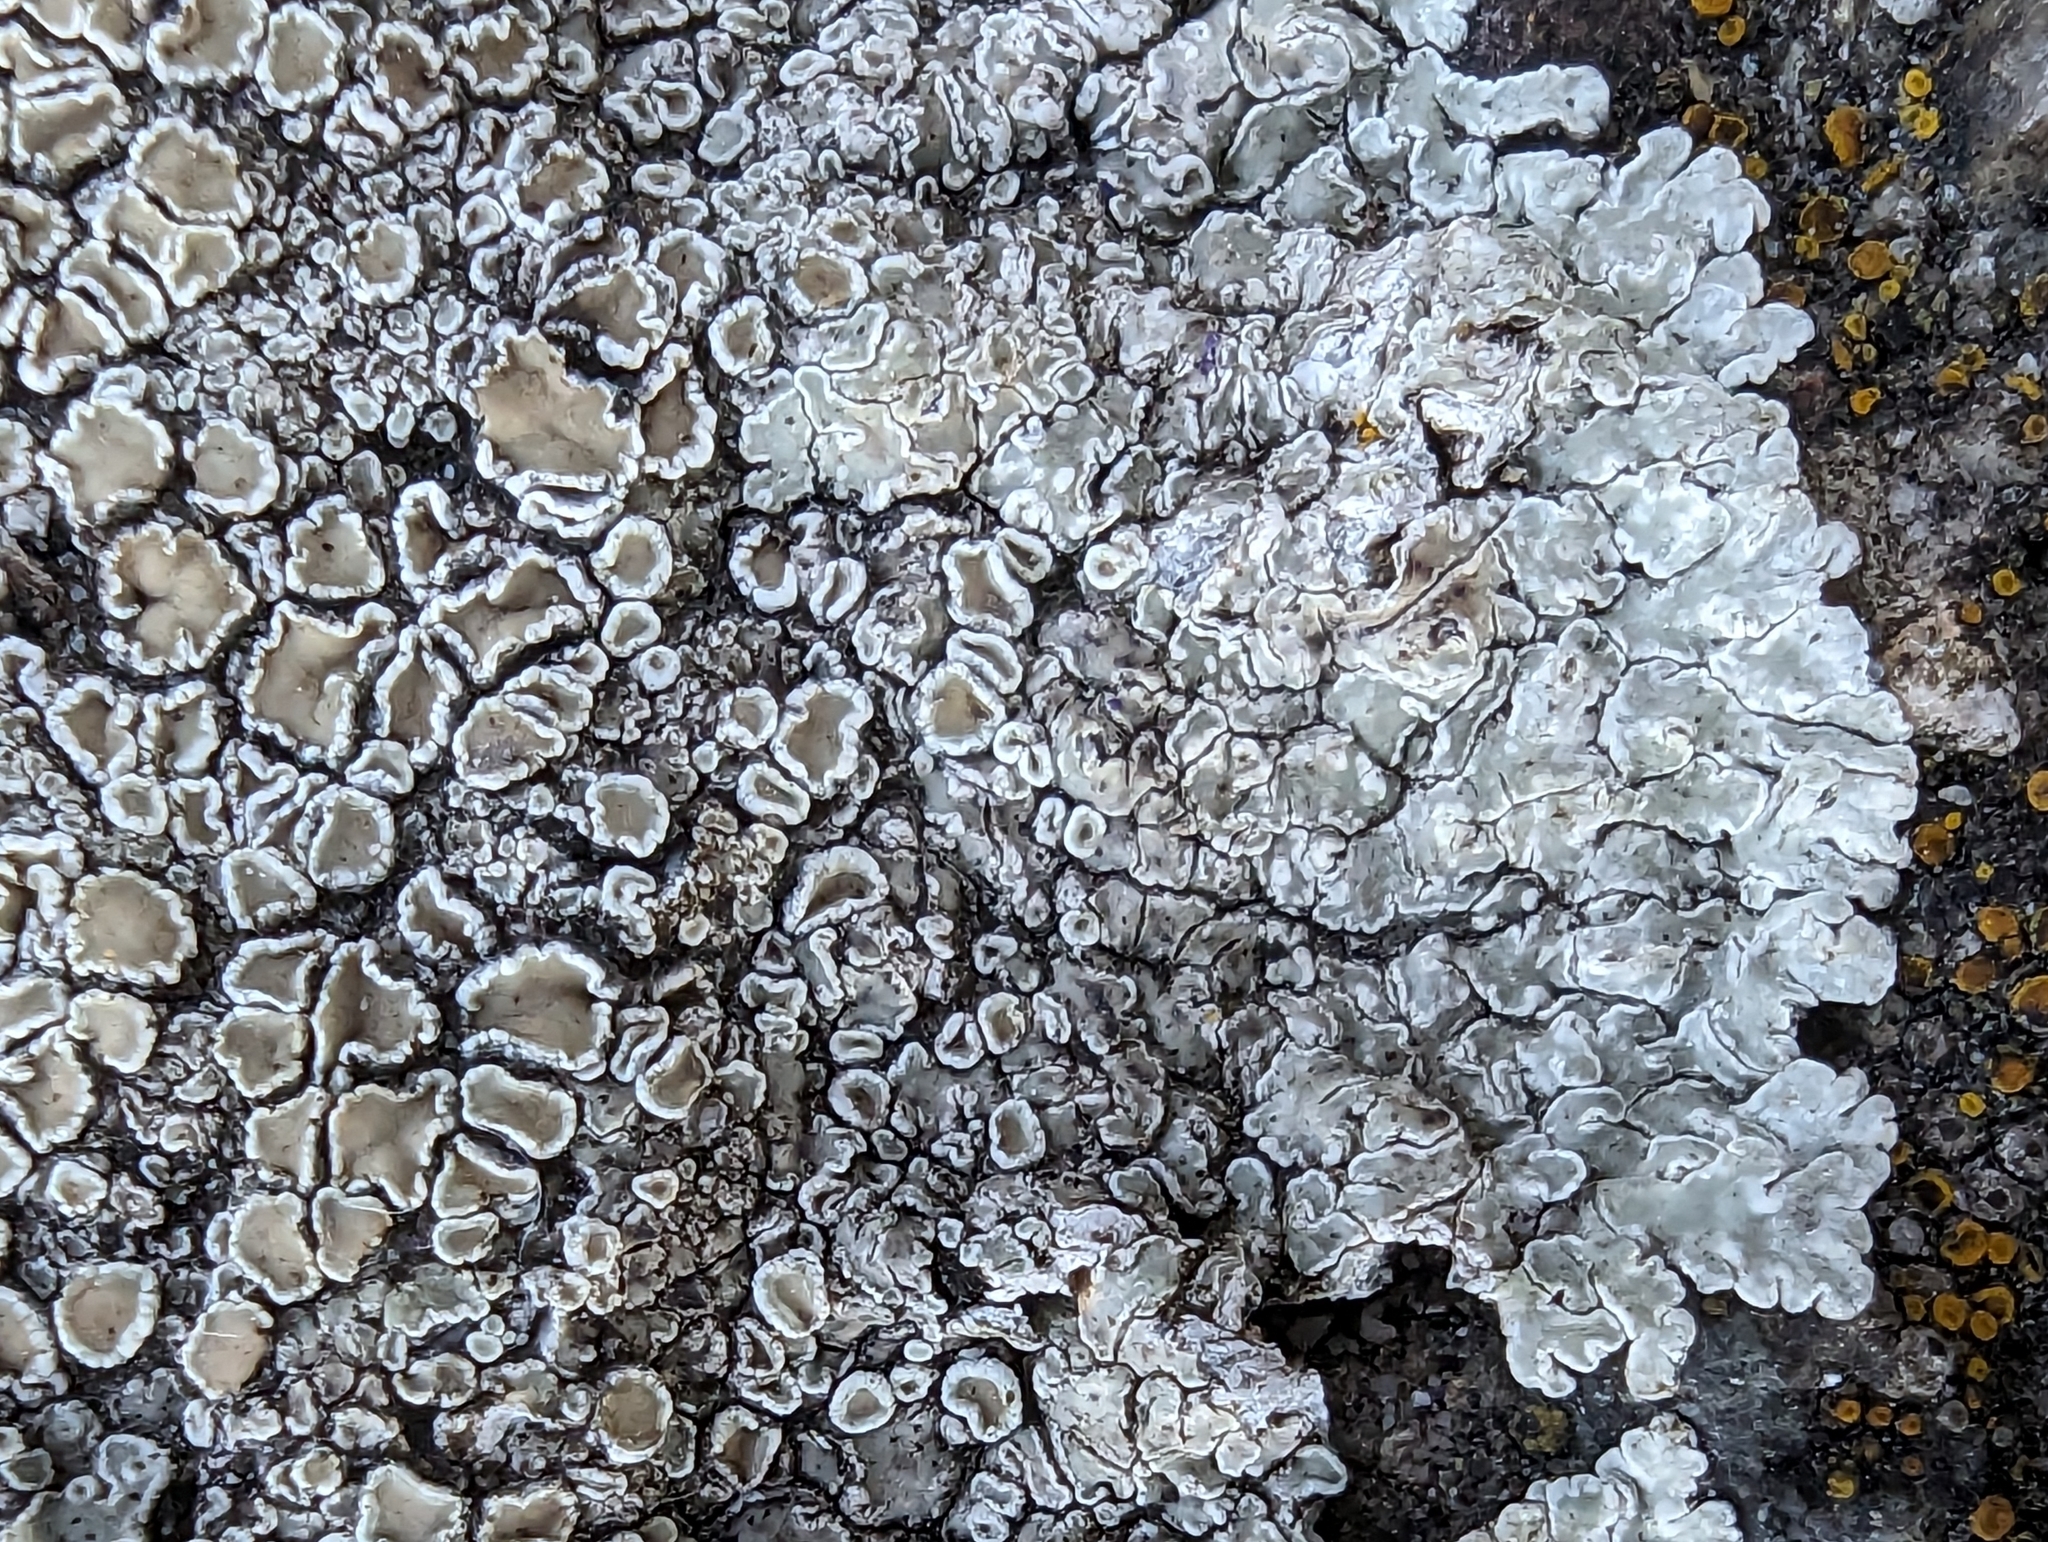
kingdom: Fungi
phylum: Ascomycota
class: Lecanoromycetes
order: Lecanorales
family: Lecanoraceae
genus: Protoparmeliopsis
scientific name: Protoparmeliopsis muralis
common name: Stonewall rim lichen
